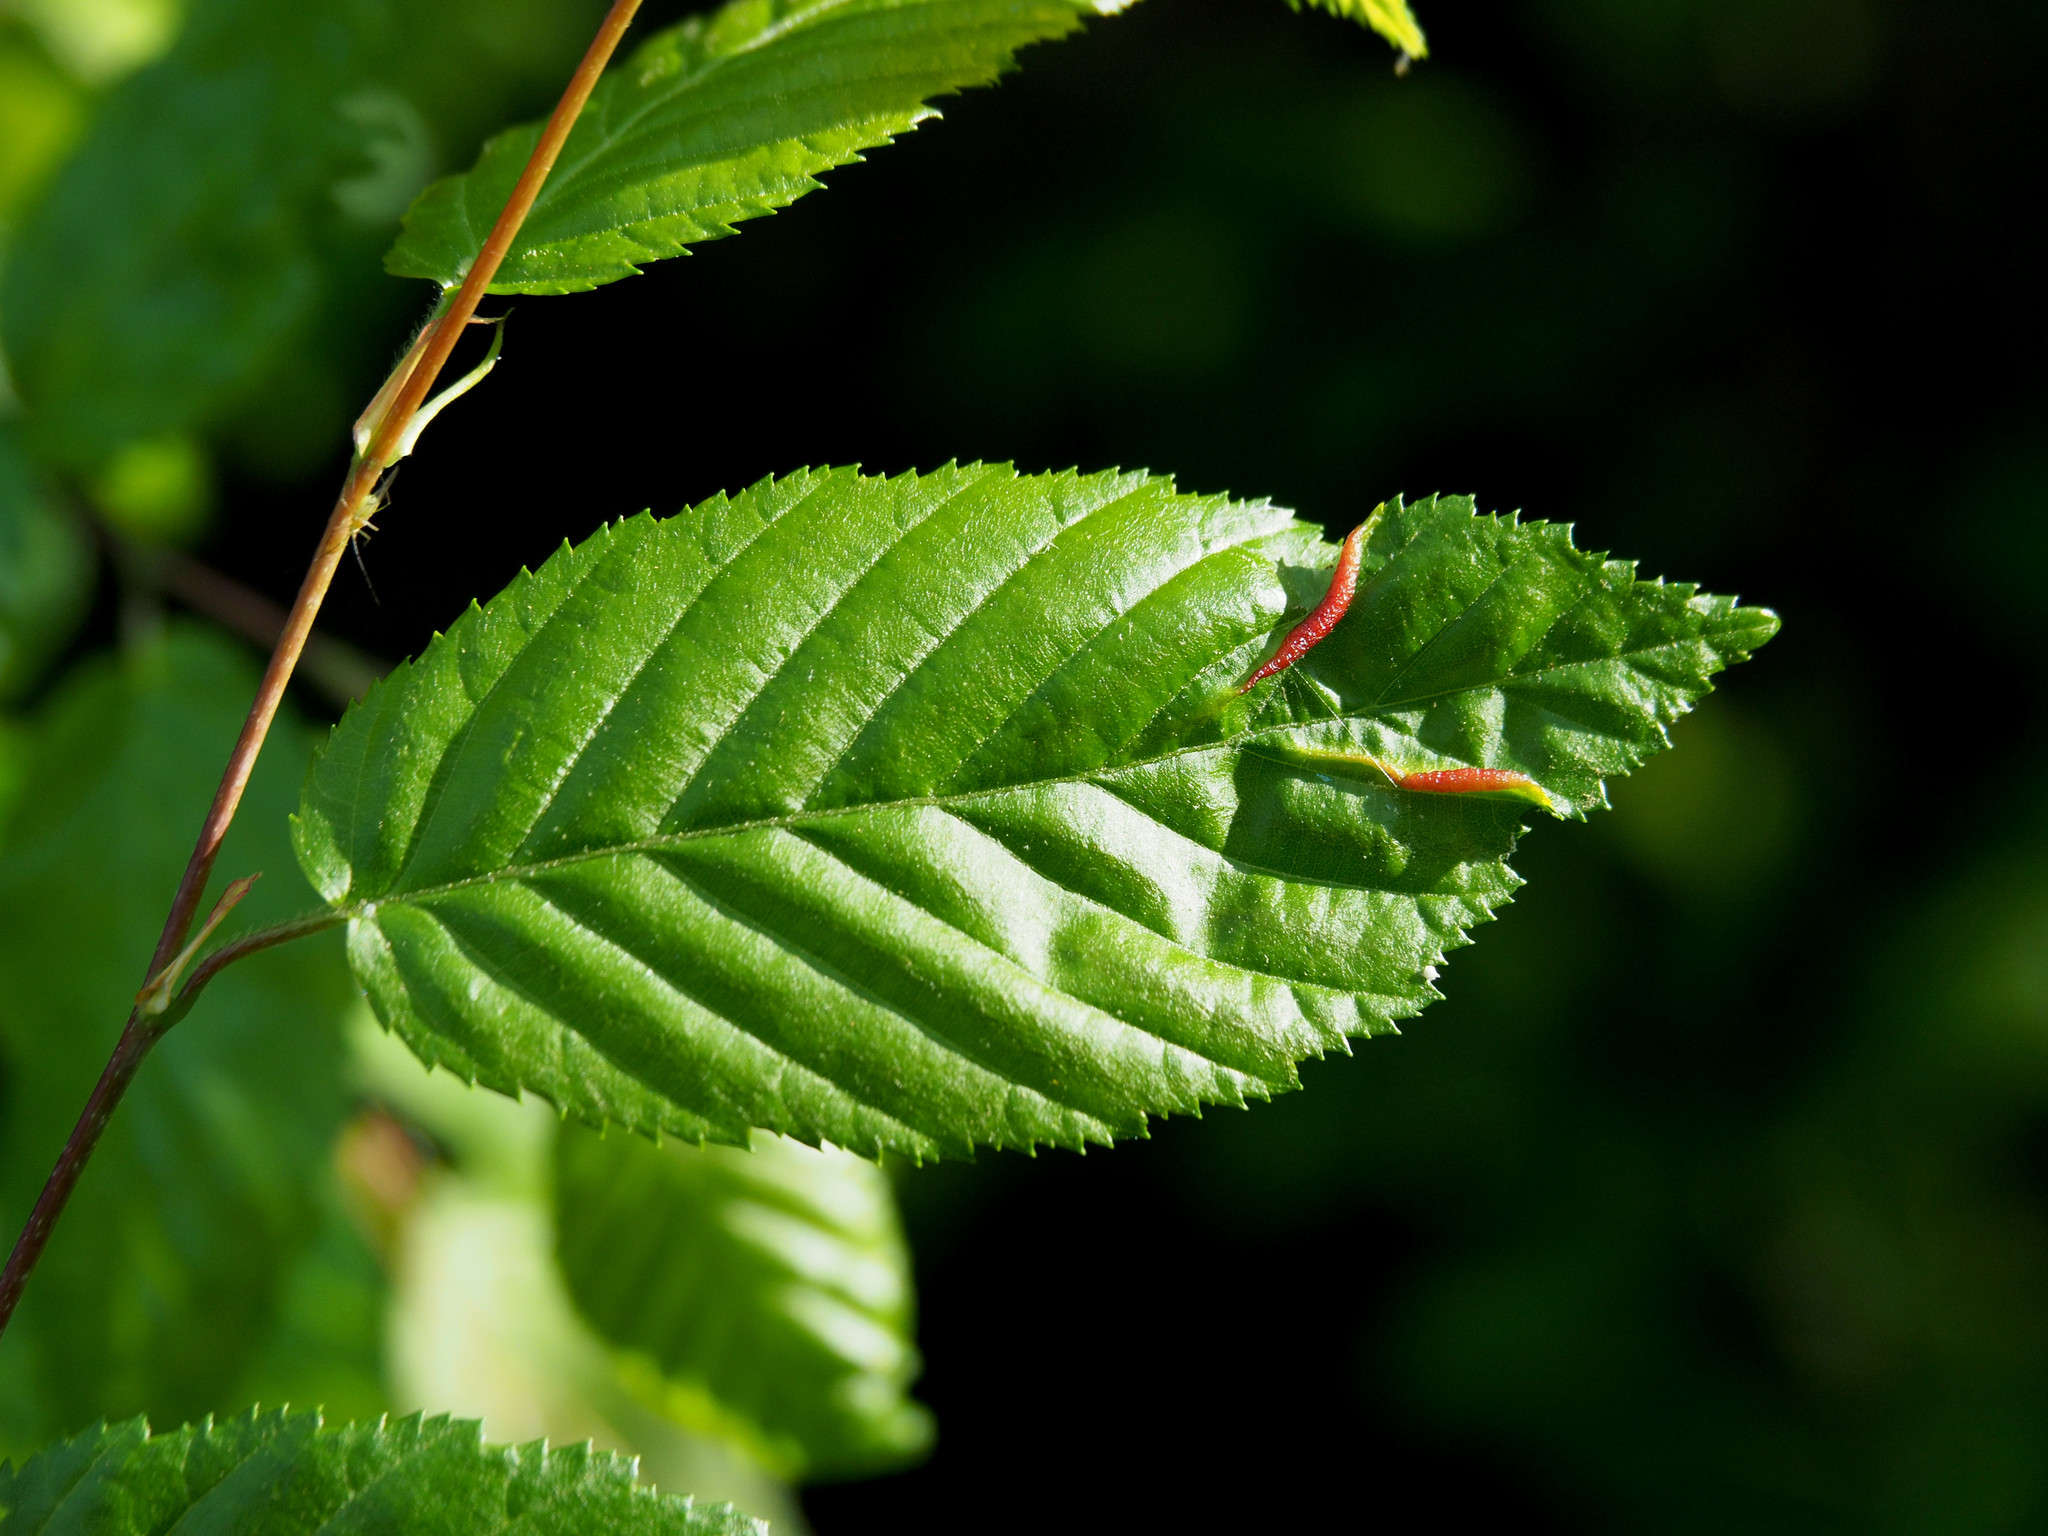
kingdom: Animalia
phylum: Arthropoda
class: Insecta
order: Diptera
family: Cecidomyiidae
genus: Dasineura
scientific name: Dasineura pudibunda
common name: Hornbeam leaf gall midge
